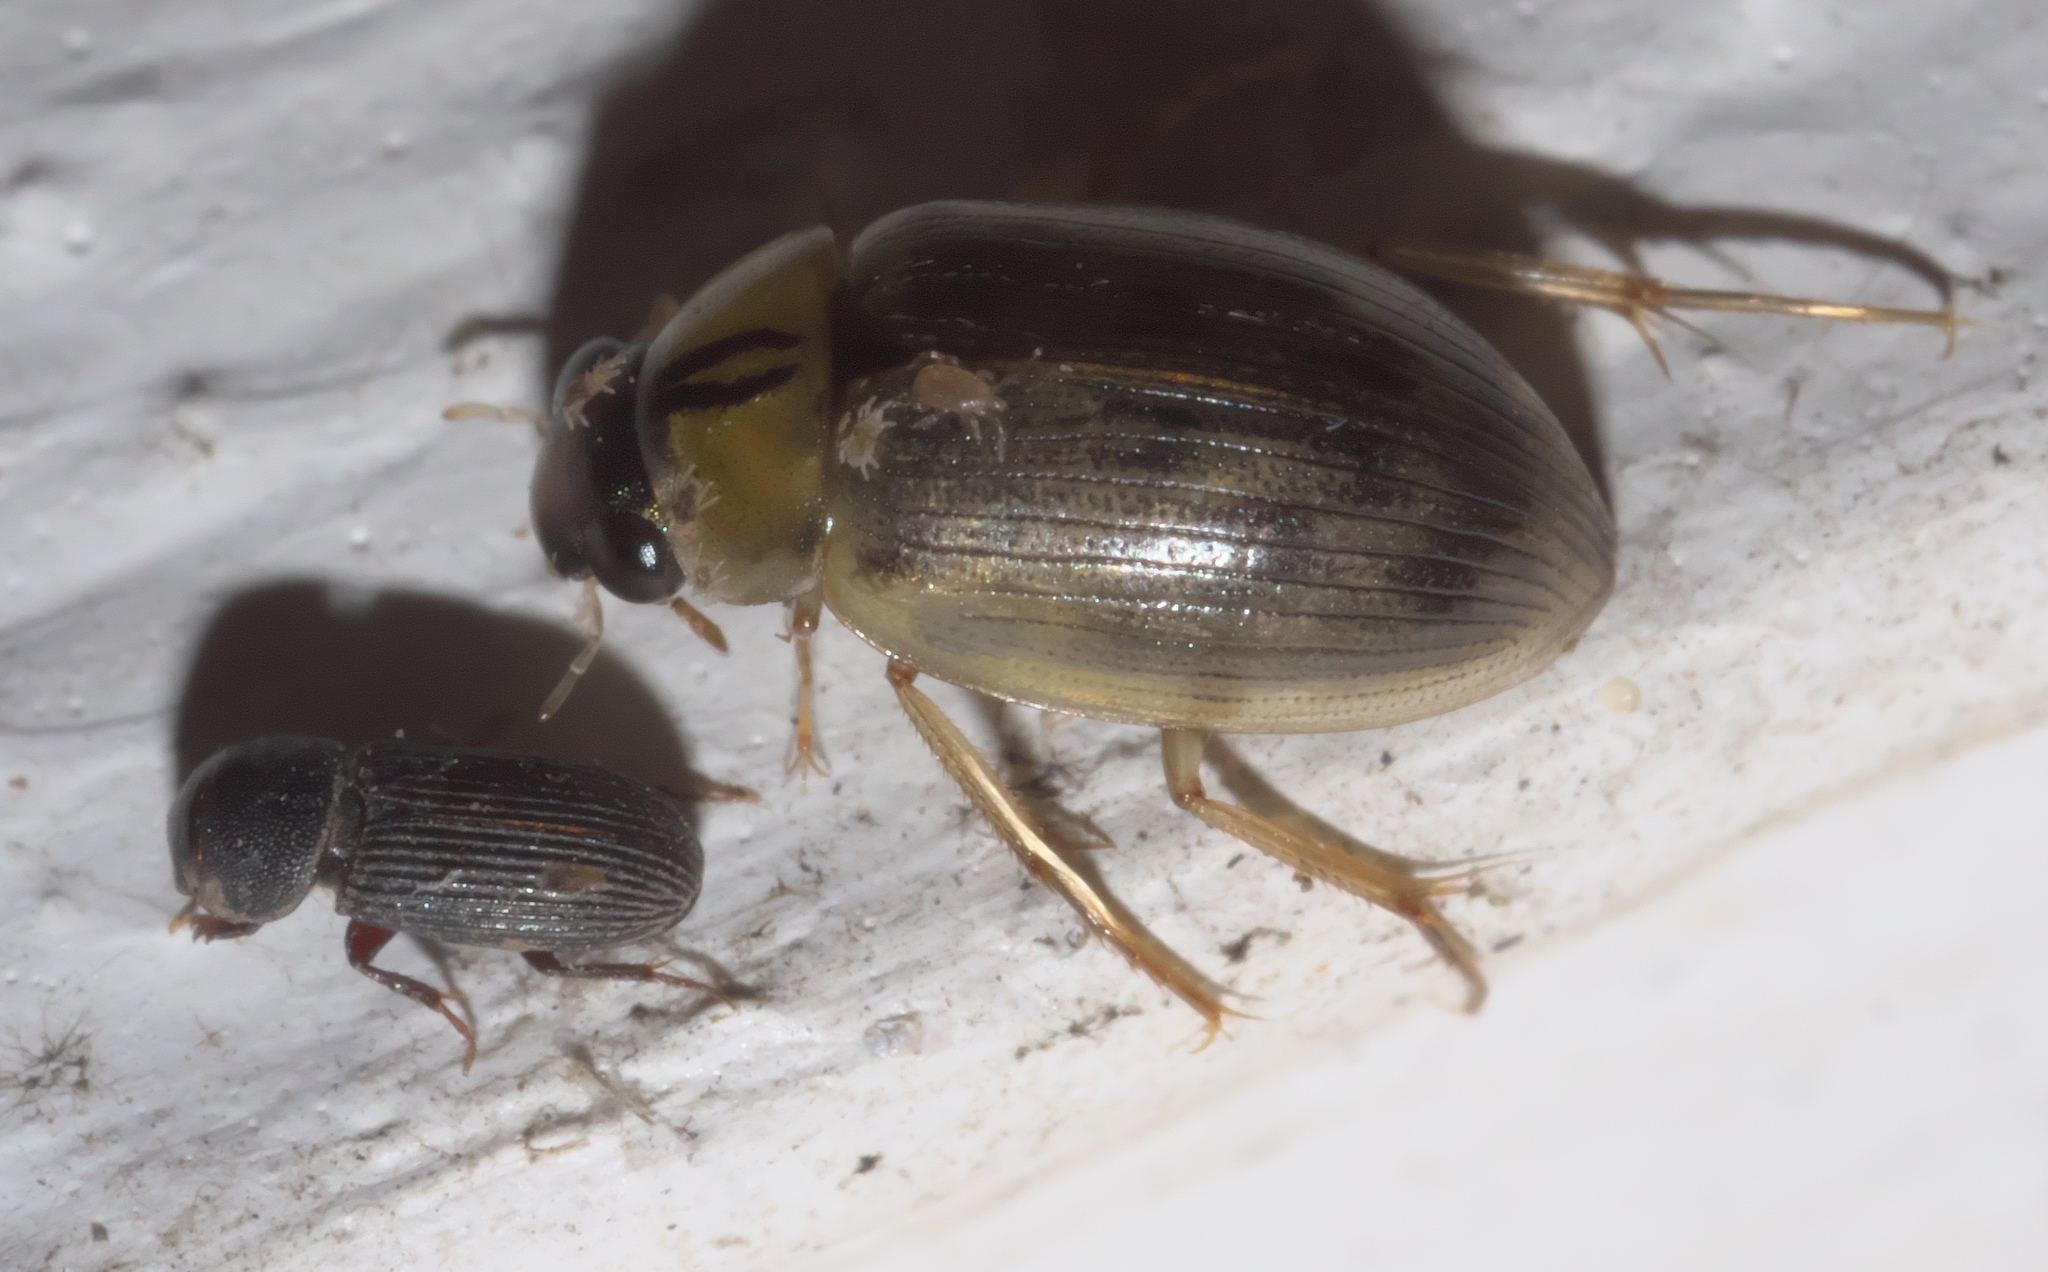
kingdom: Animalia
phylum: Arthropoda
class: Insecta
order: Coleoptera
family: Hydrophilidae
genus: Berosus
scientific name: Berosus infuscatus
